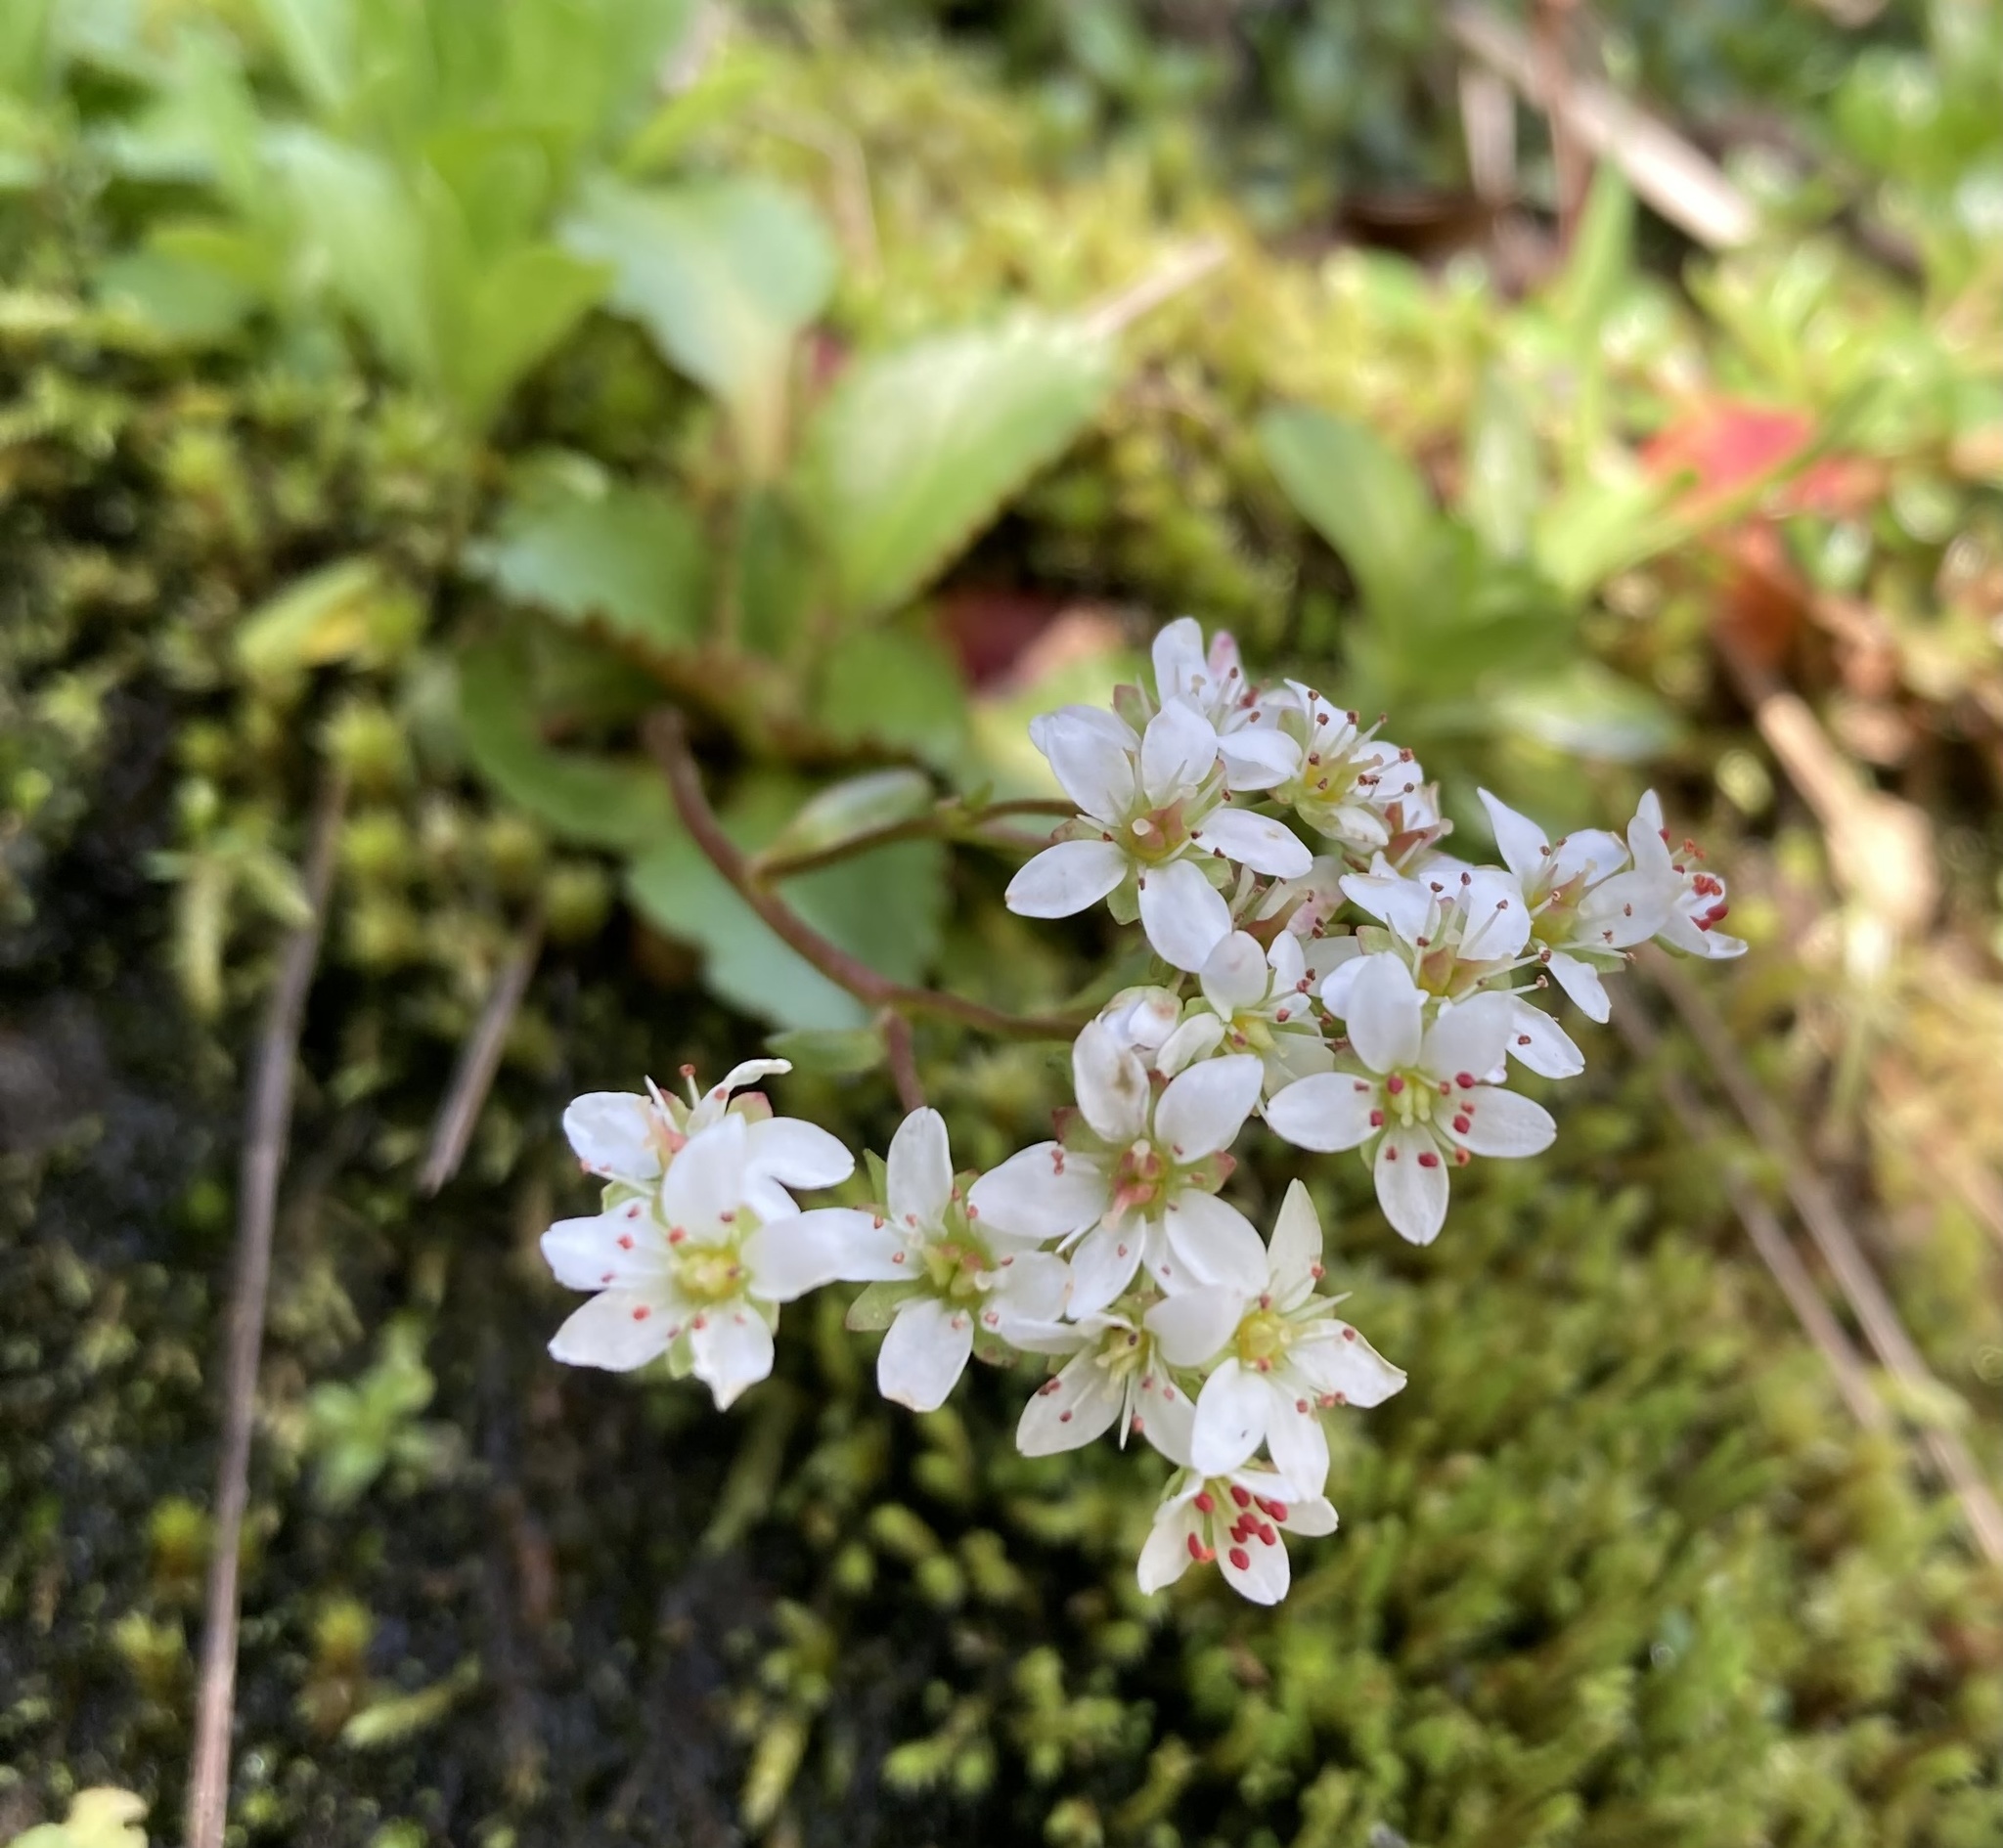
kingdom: Plantae
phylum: Tracheophyta
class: Magnoliopsida
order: Saxifragales
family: Saxifragaceae
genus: Micranthes
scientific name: Micranthes rufidula
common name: Rustyhair saxifrage
